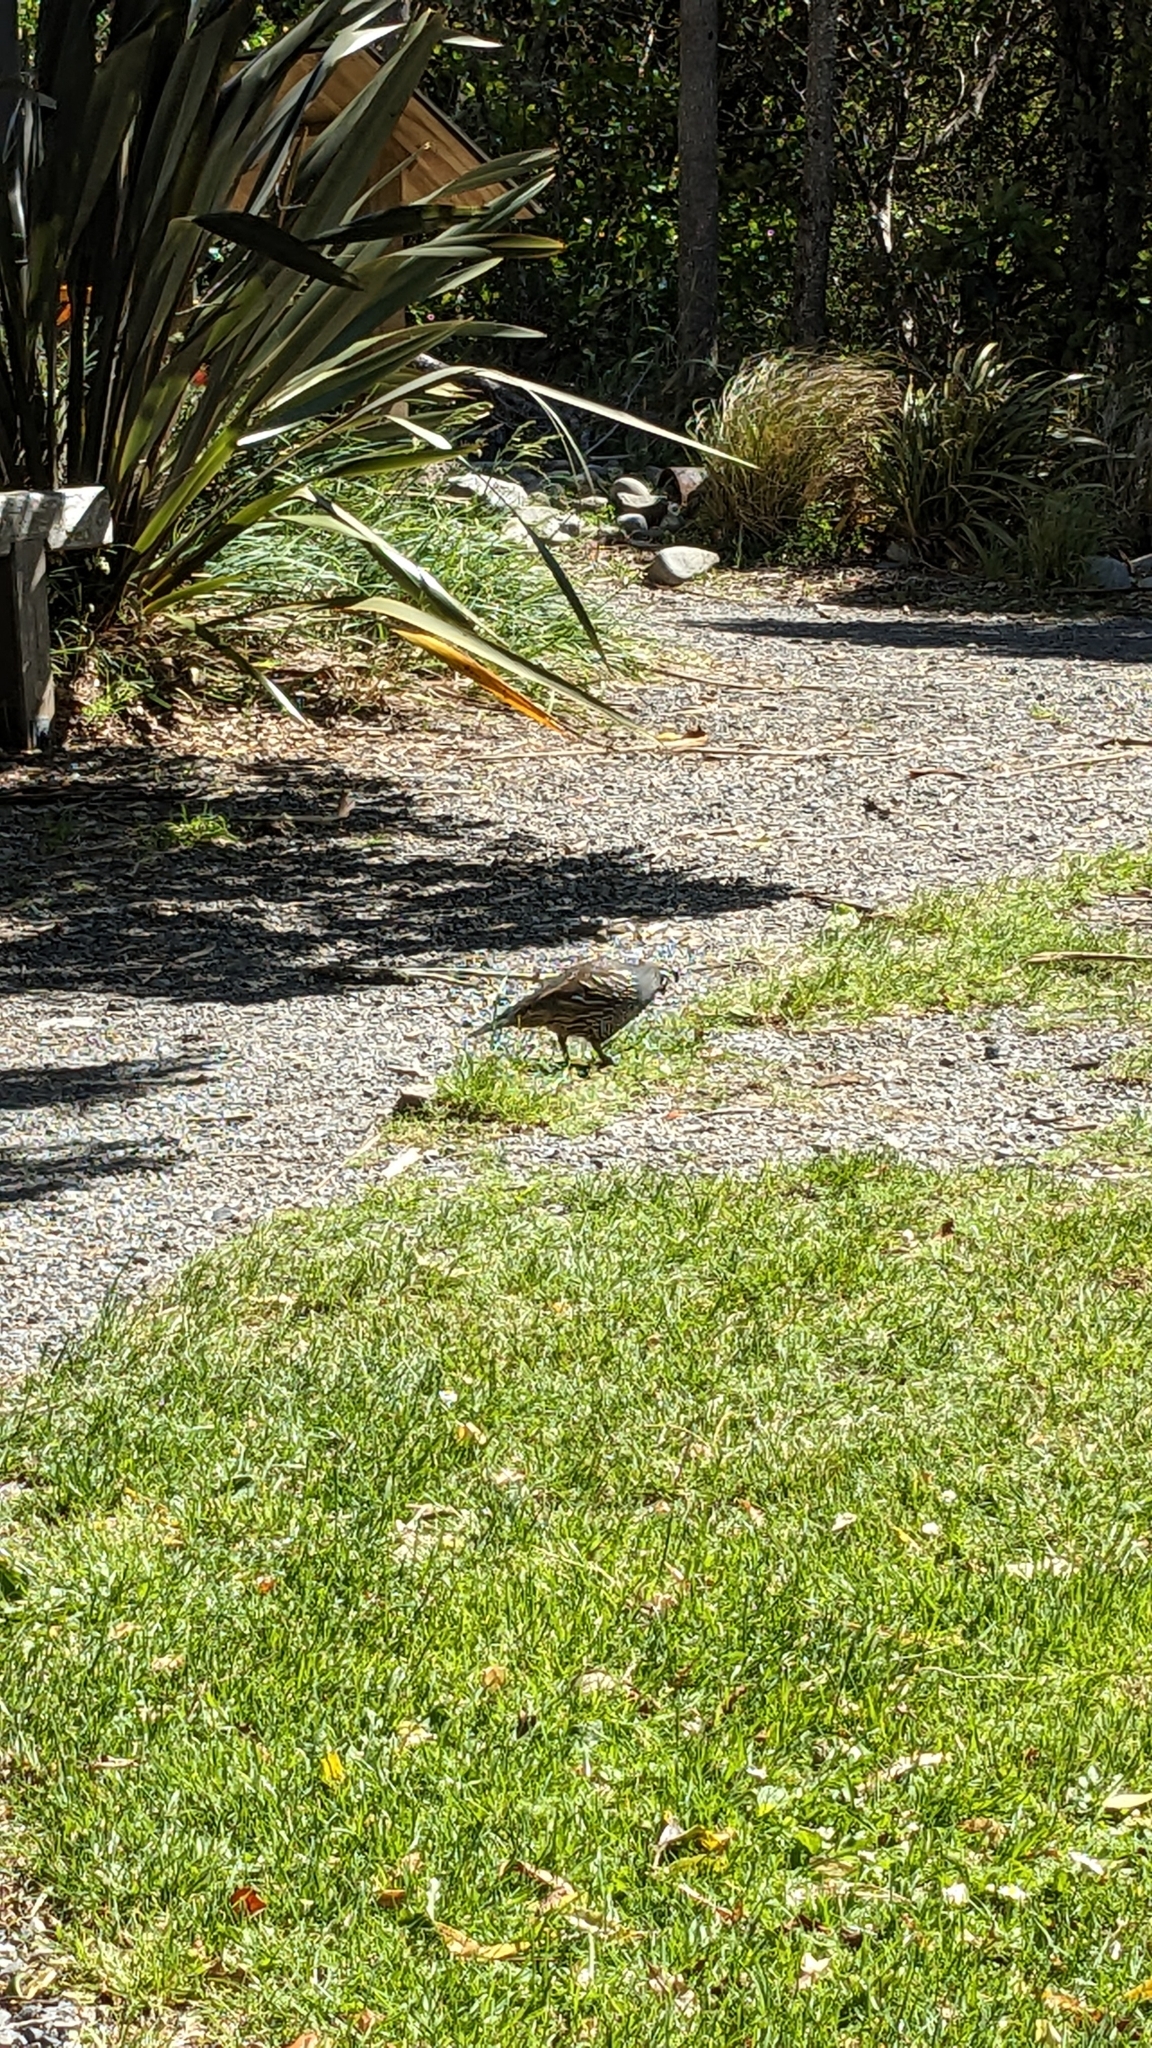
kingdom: Animalia
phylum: Chordata
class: Aves
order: Galliformes
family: Odontophoridae
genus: Callipepla
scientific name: Callipepla californica
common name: California quail
